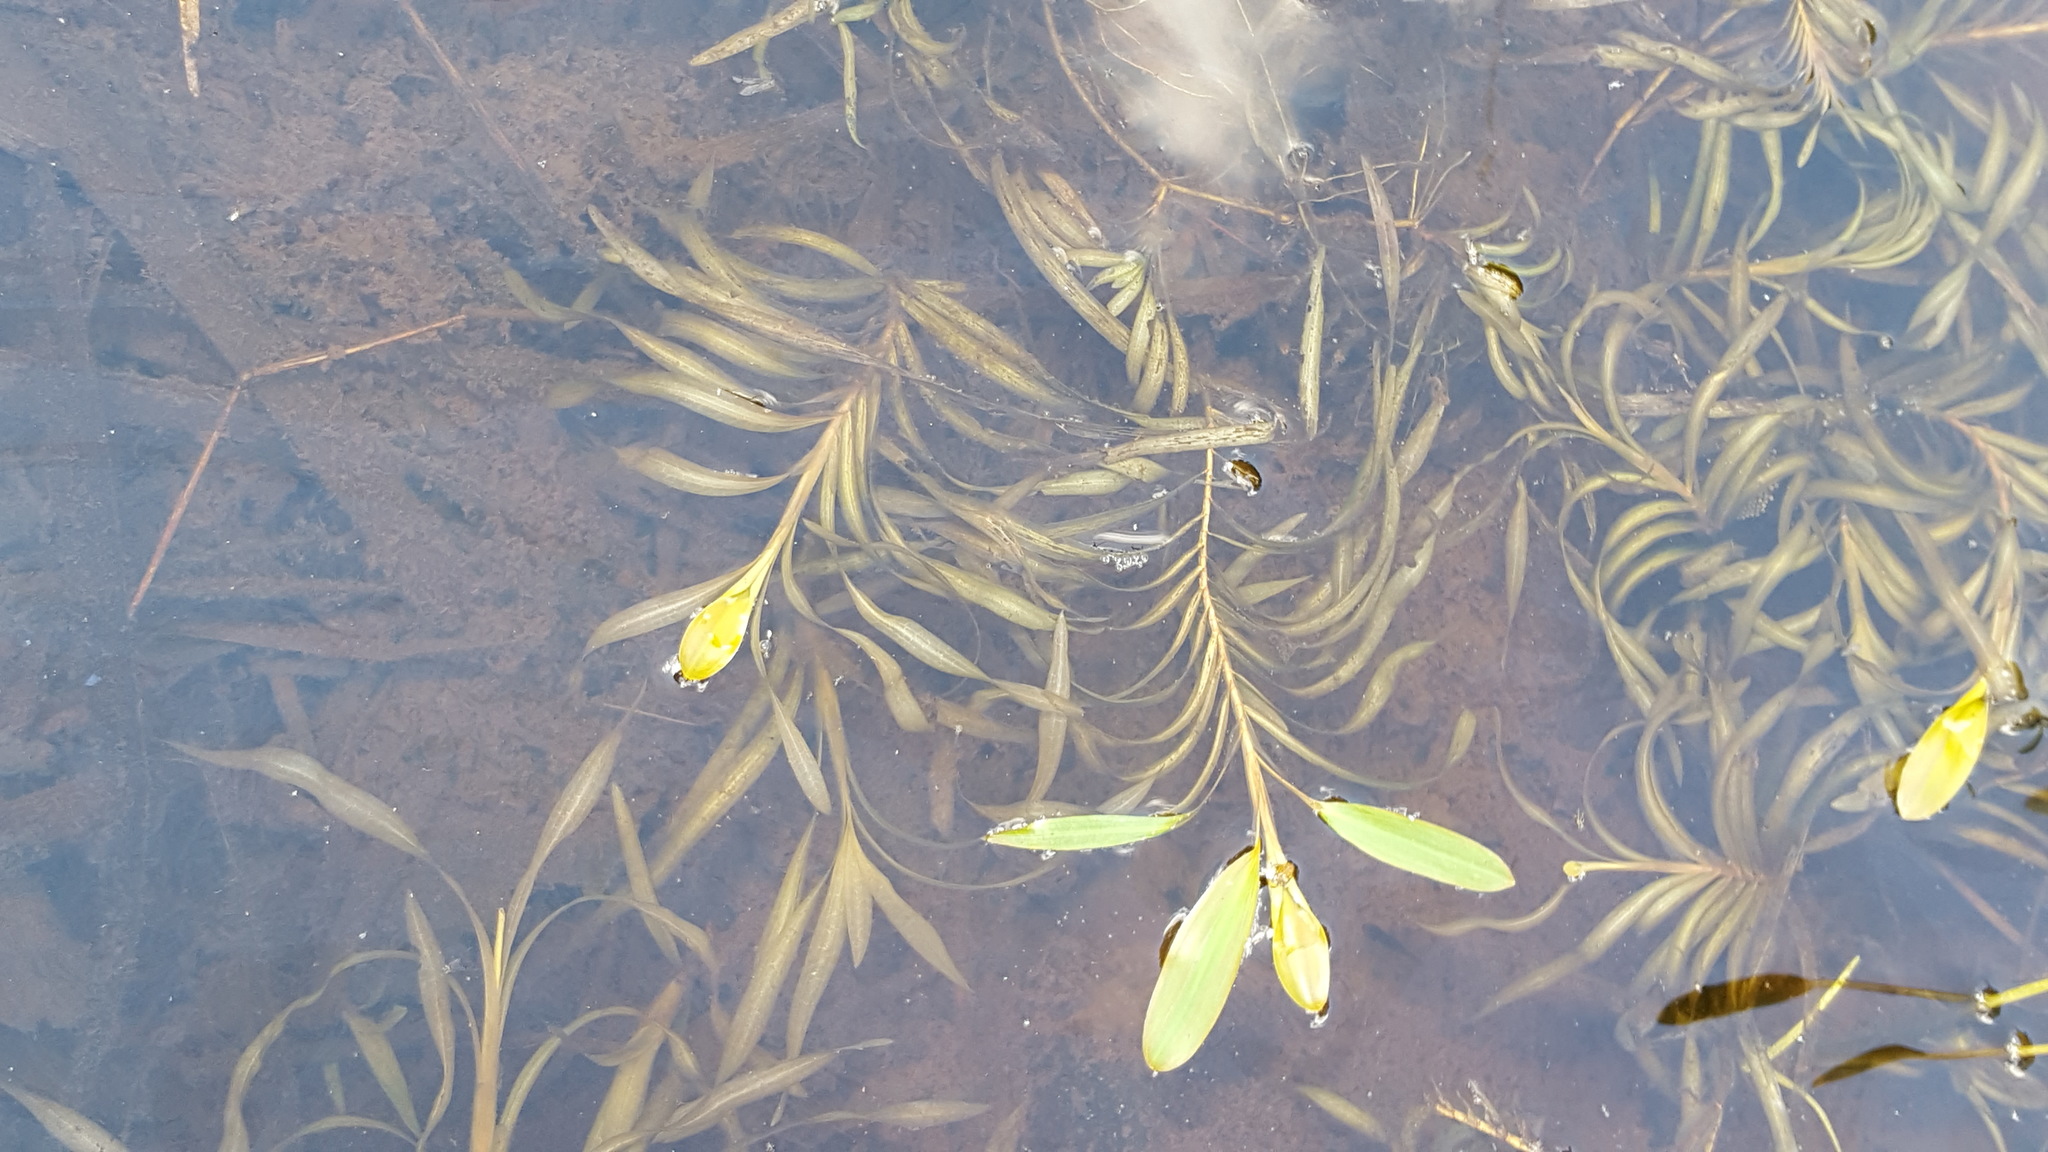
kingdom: Plantae
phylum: Tracheophyta
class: Liliopsida
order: Alismatales
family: Potamogetonaceae
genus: Potamogeton
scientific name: Potamogeton epihydrus
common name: American pondweed
